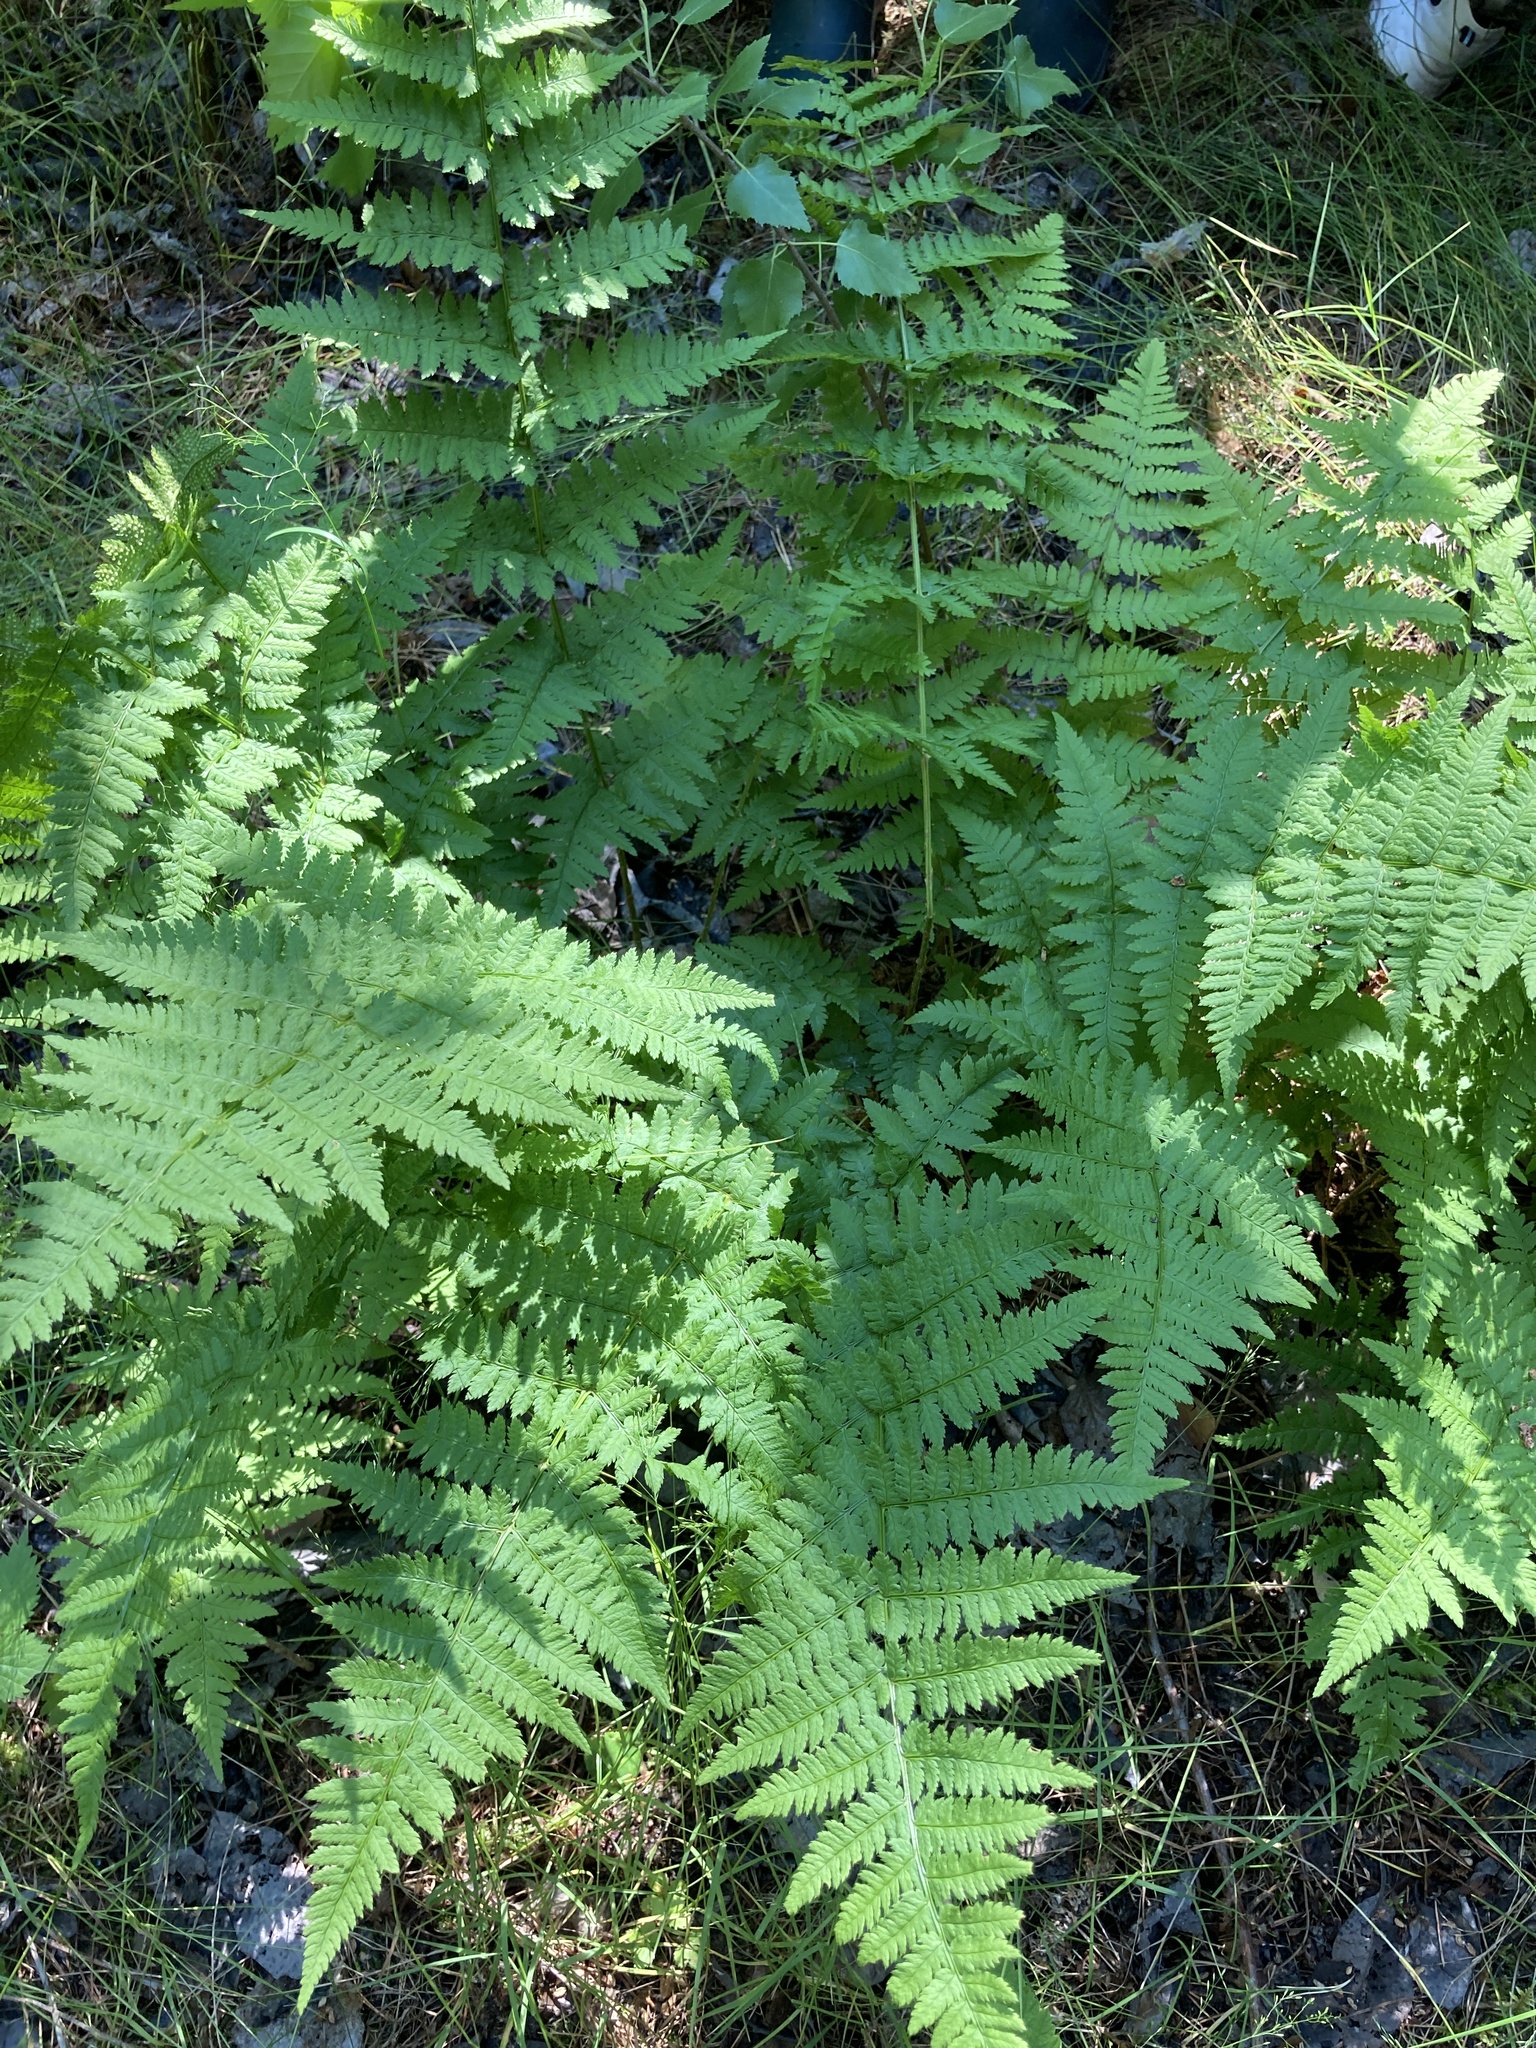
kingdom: Plantae
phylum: Tracheophyta
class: Polypodiopsida
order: Polypodiales
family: Dryopteridaceae
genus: Dryopteris
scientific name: Dryopteris carthusiana
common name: Narrow buckler-fern
